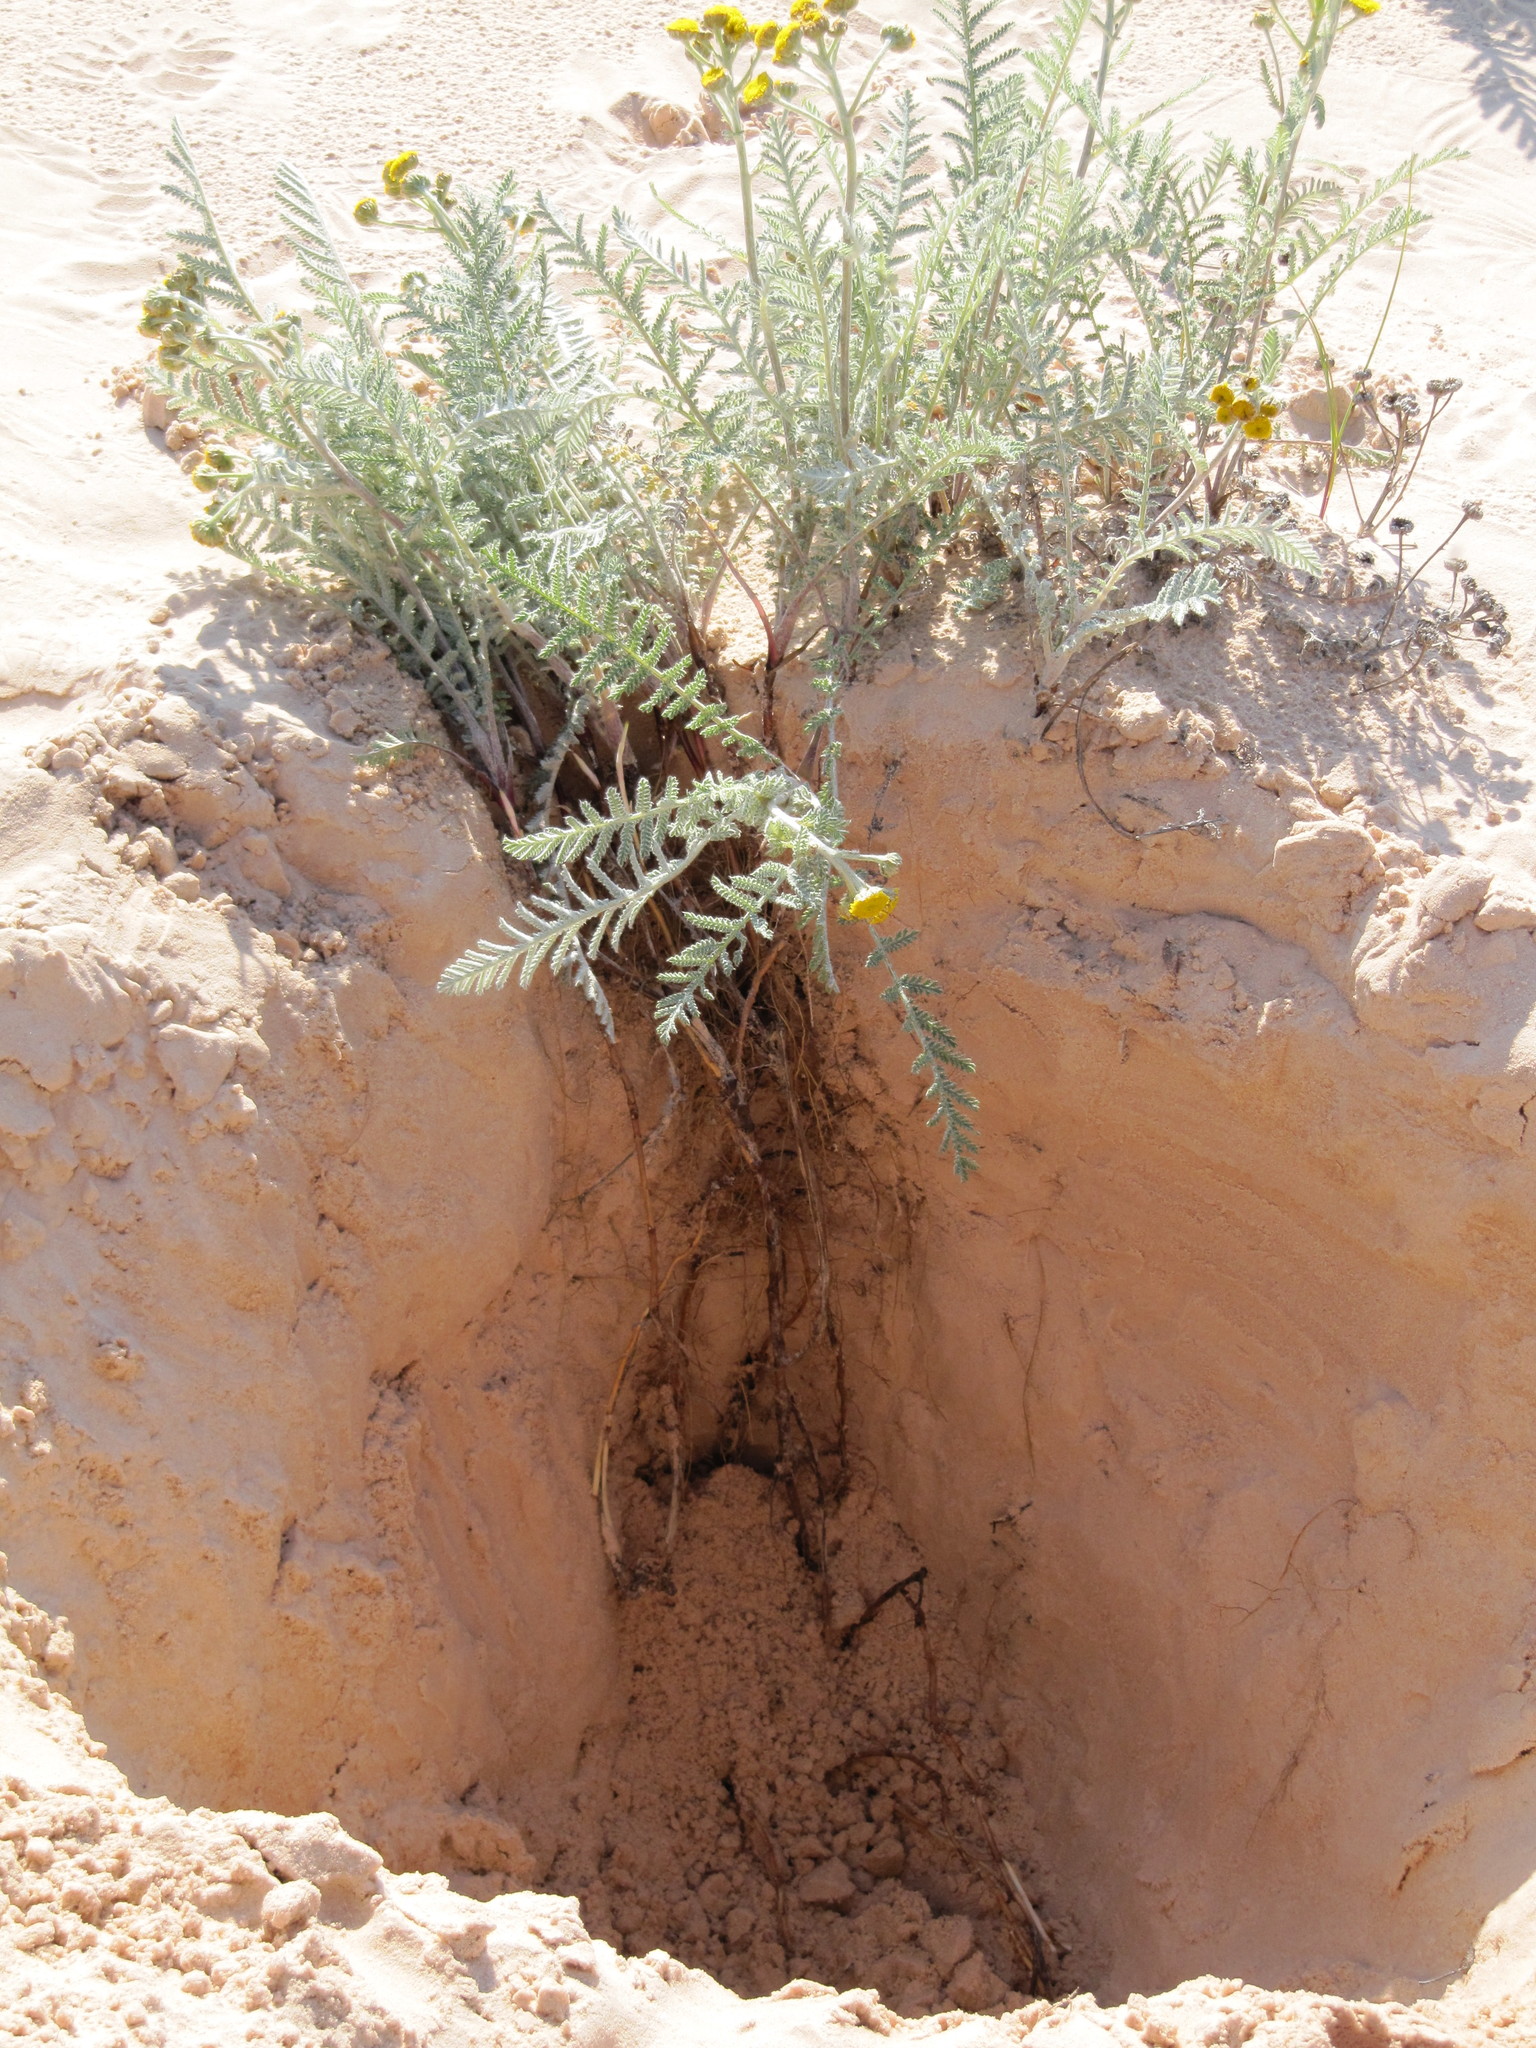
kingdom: Plantae
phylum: Tracheophyta
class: Magnoliopsida
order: Asterales
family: Asteraceae
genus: Tanacetum
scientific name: Tanacetum bipinnatum
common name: Dwarf tansy
